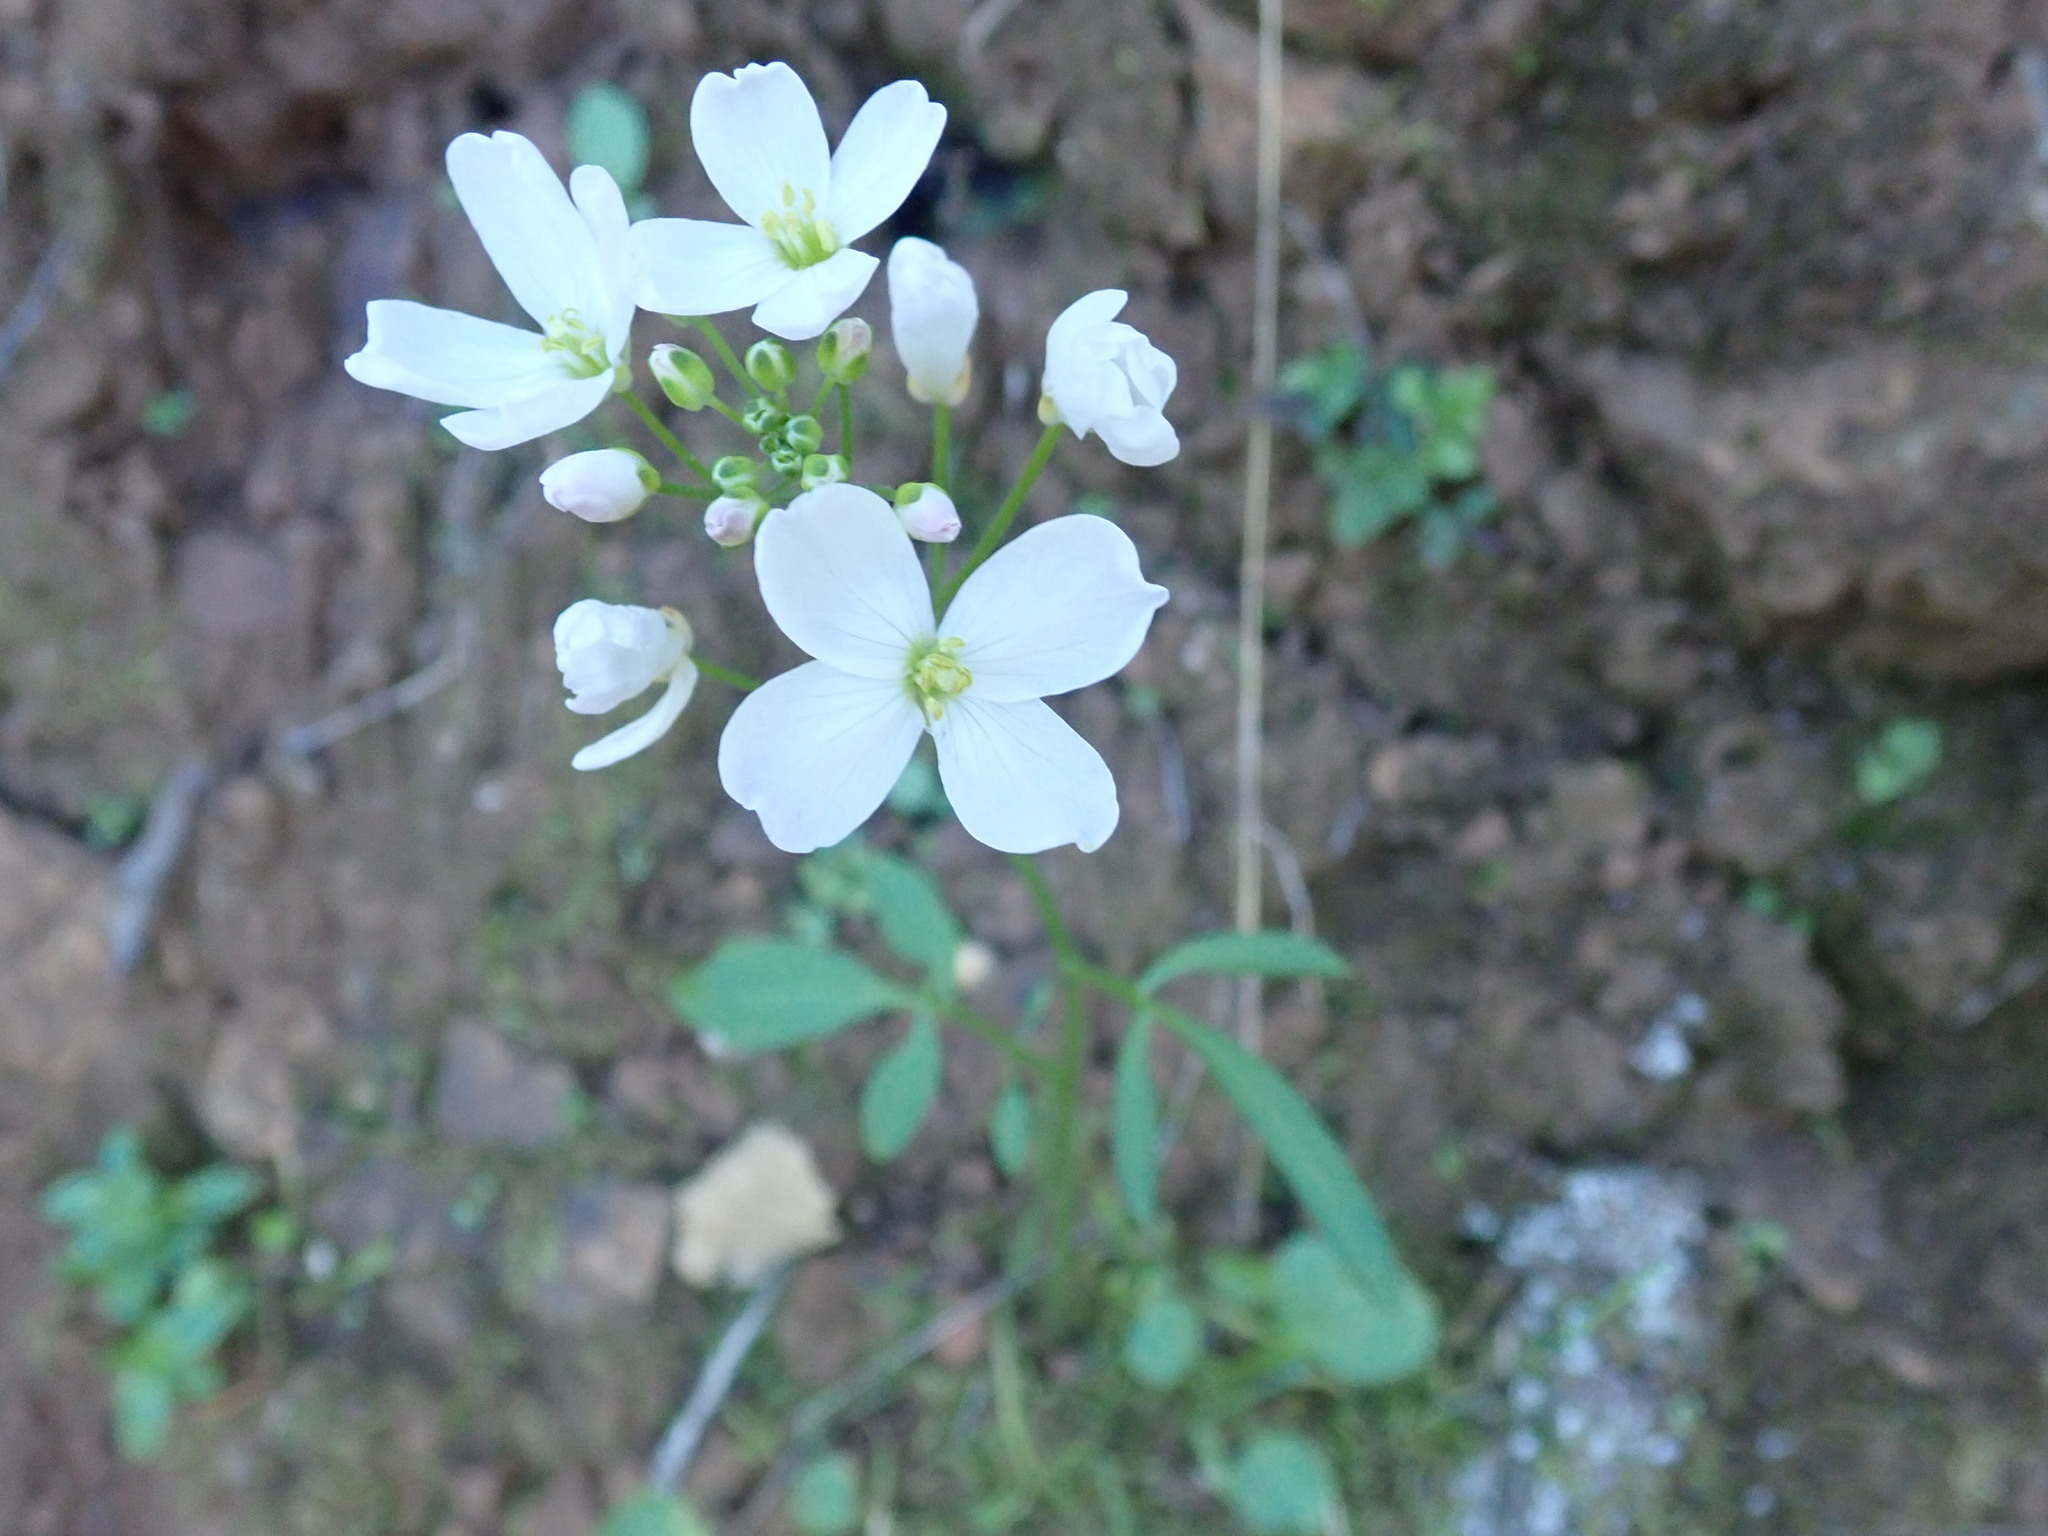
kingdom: Plantae
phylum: Tracheophyta
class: Magnoliopsida
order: Brassicales
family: Brassicaceae
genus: Cardamine
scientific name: Cardamine californica
